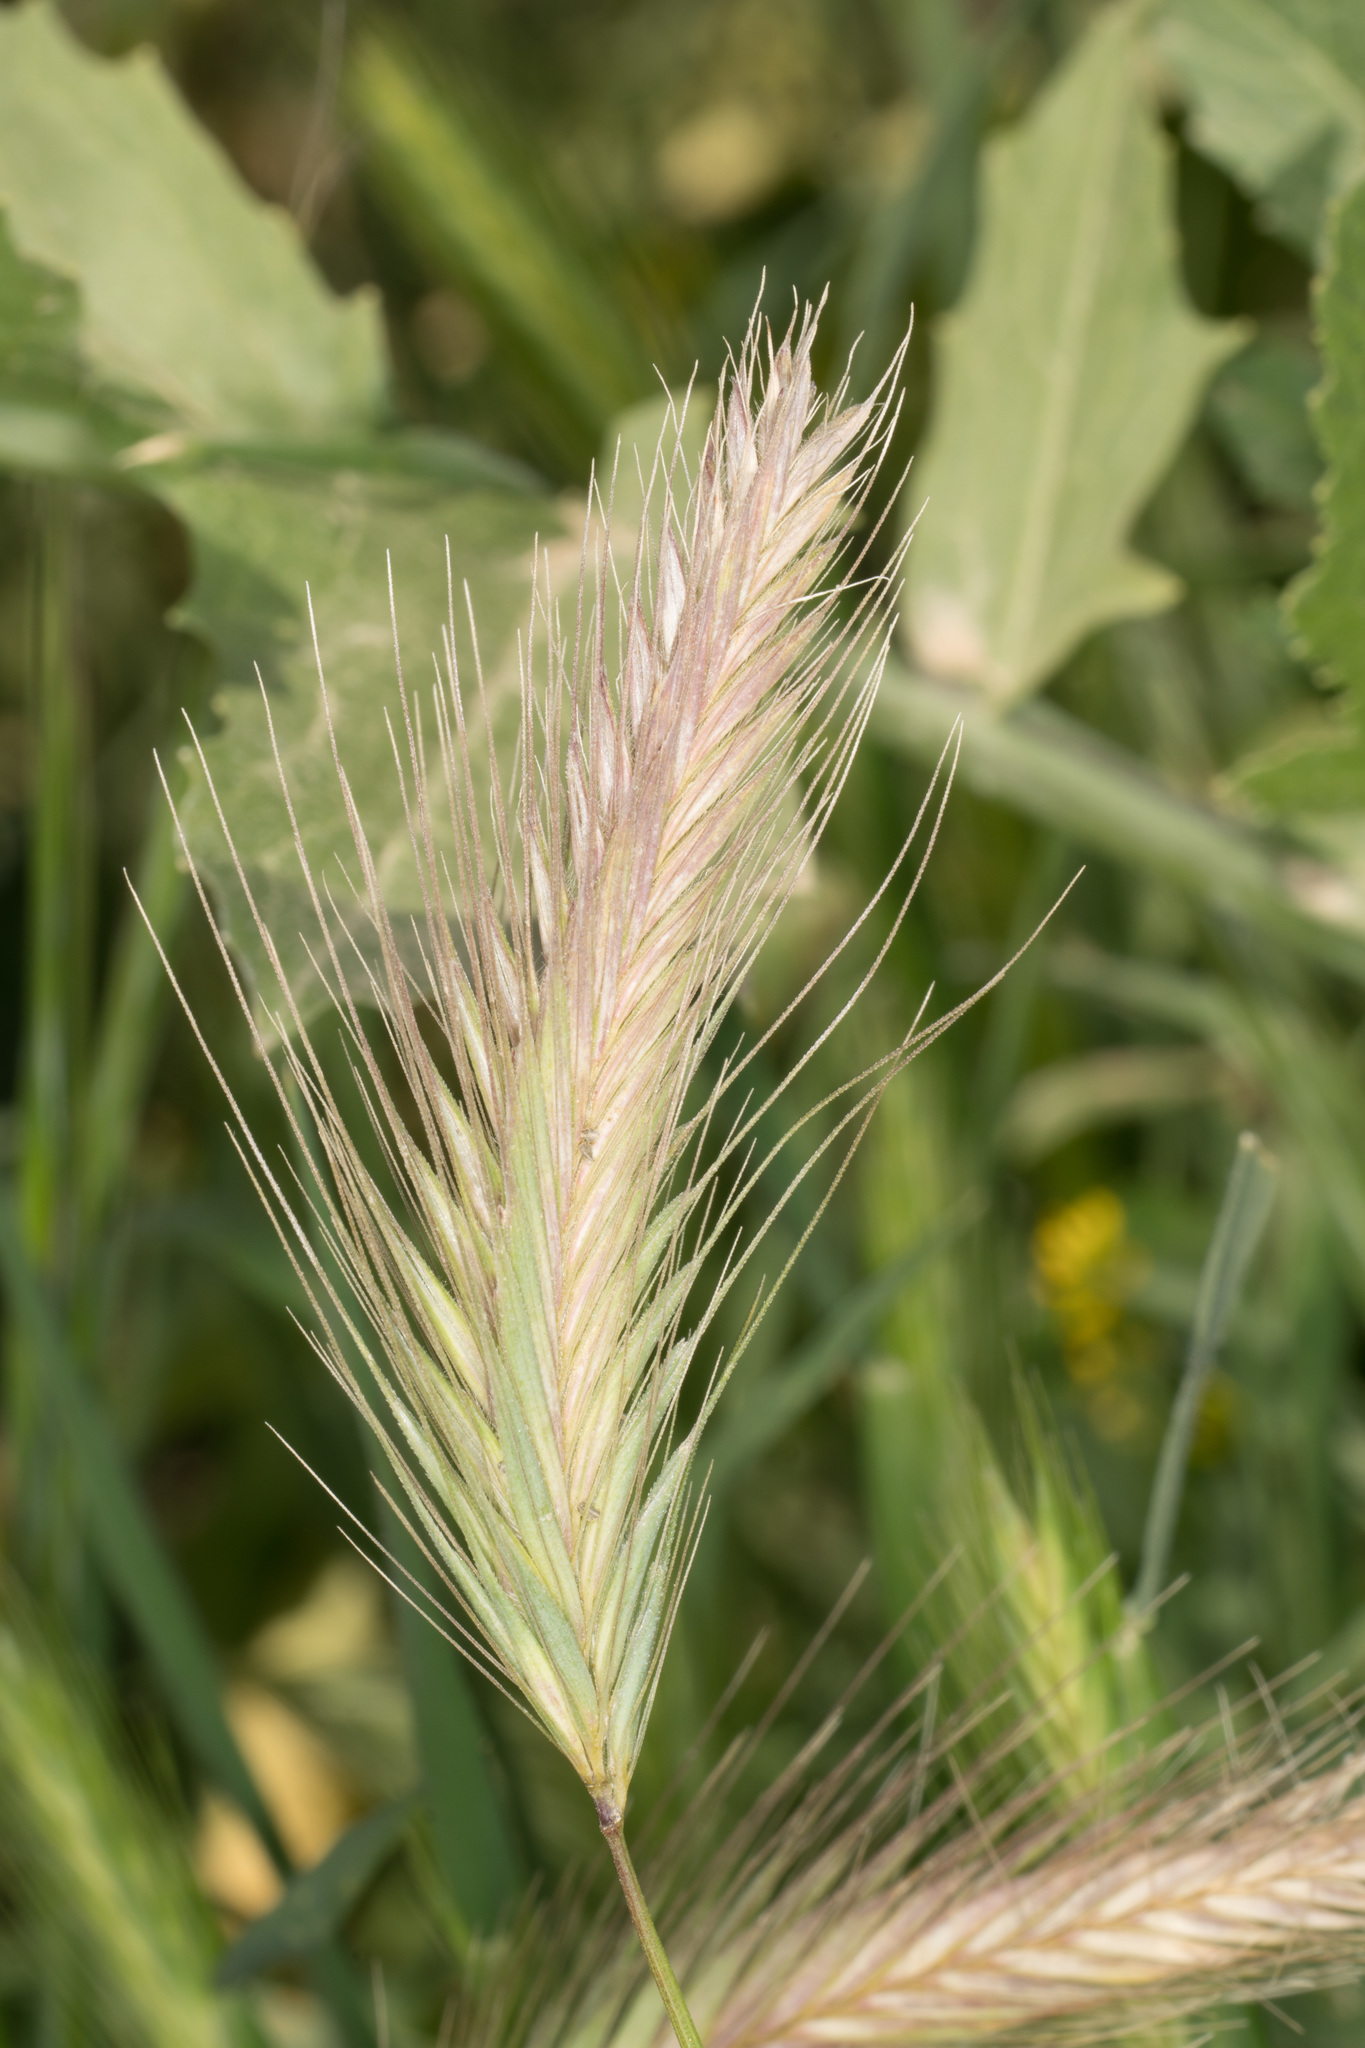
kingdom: Plantae
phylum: Tracheophyta
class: Liliopsida
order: Poales
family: Poaceae
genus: Hordeum
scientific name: Hordeum murinum
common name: Wall barley
